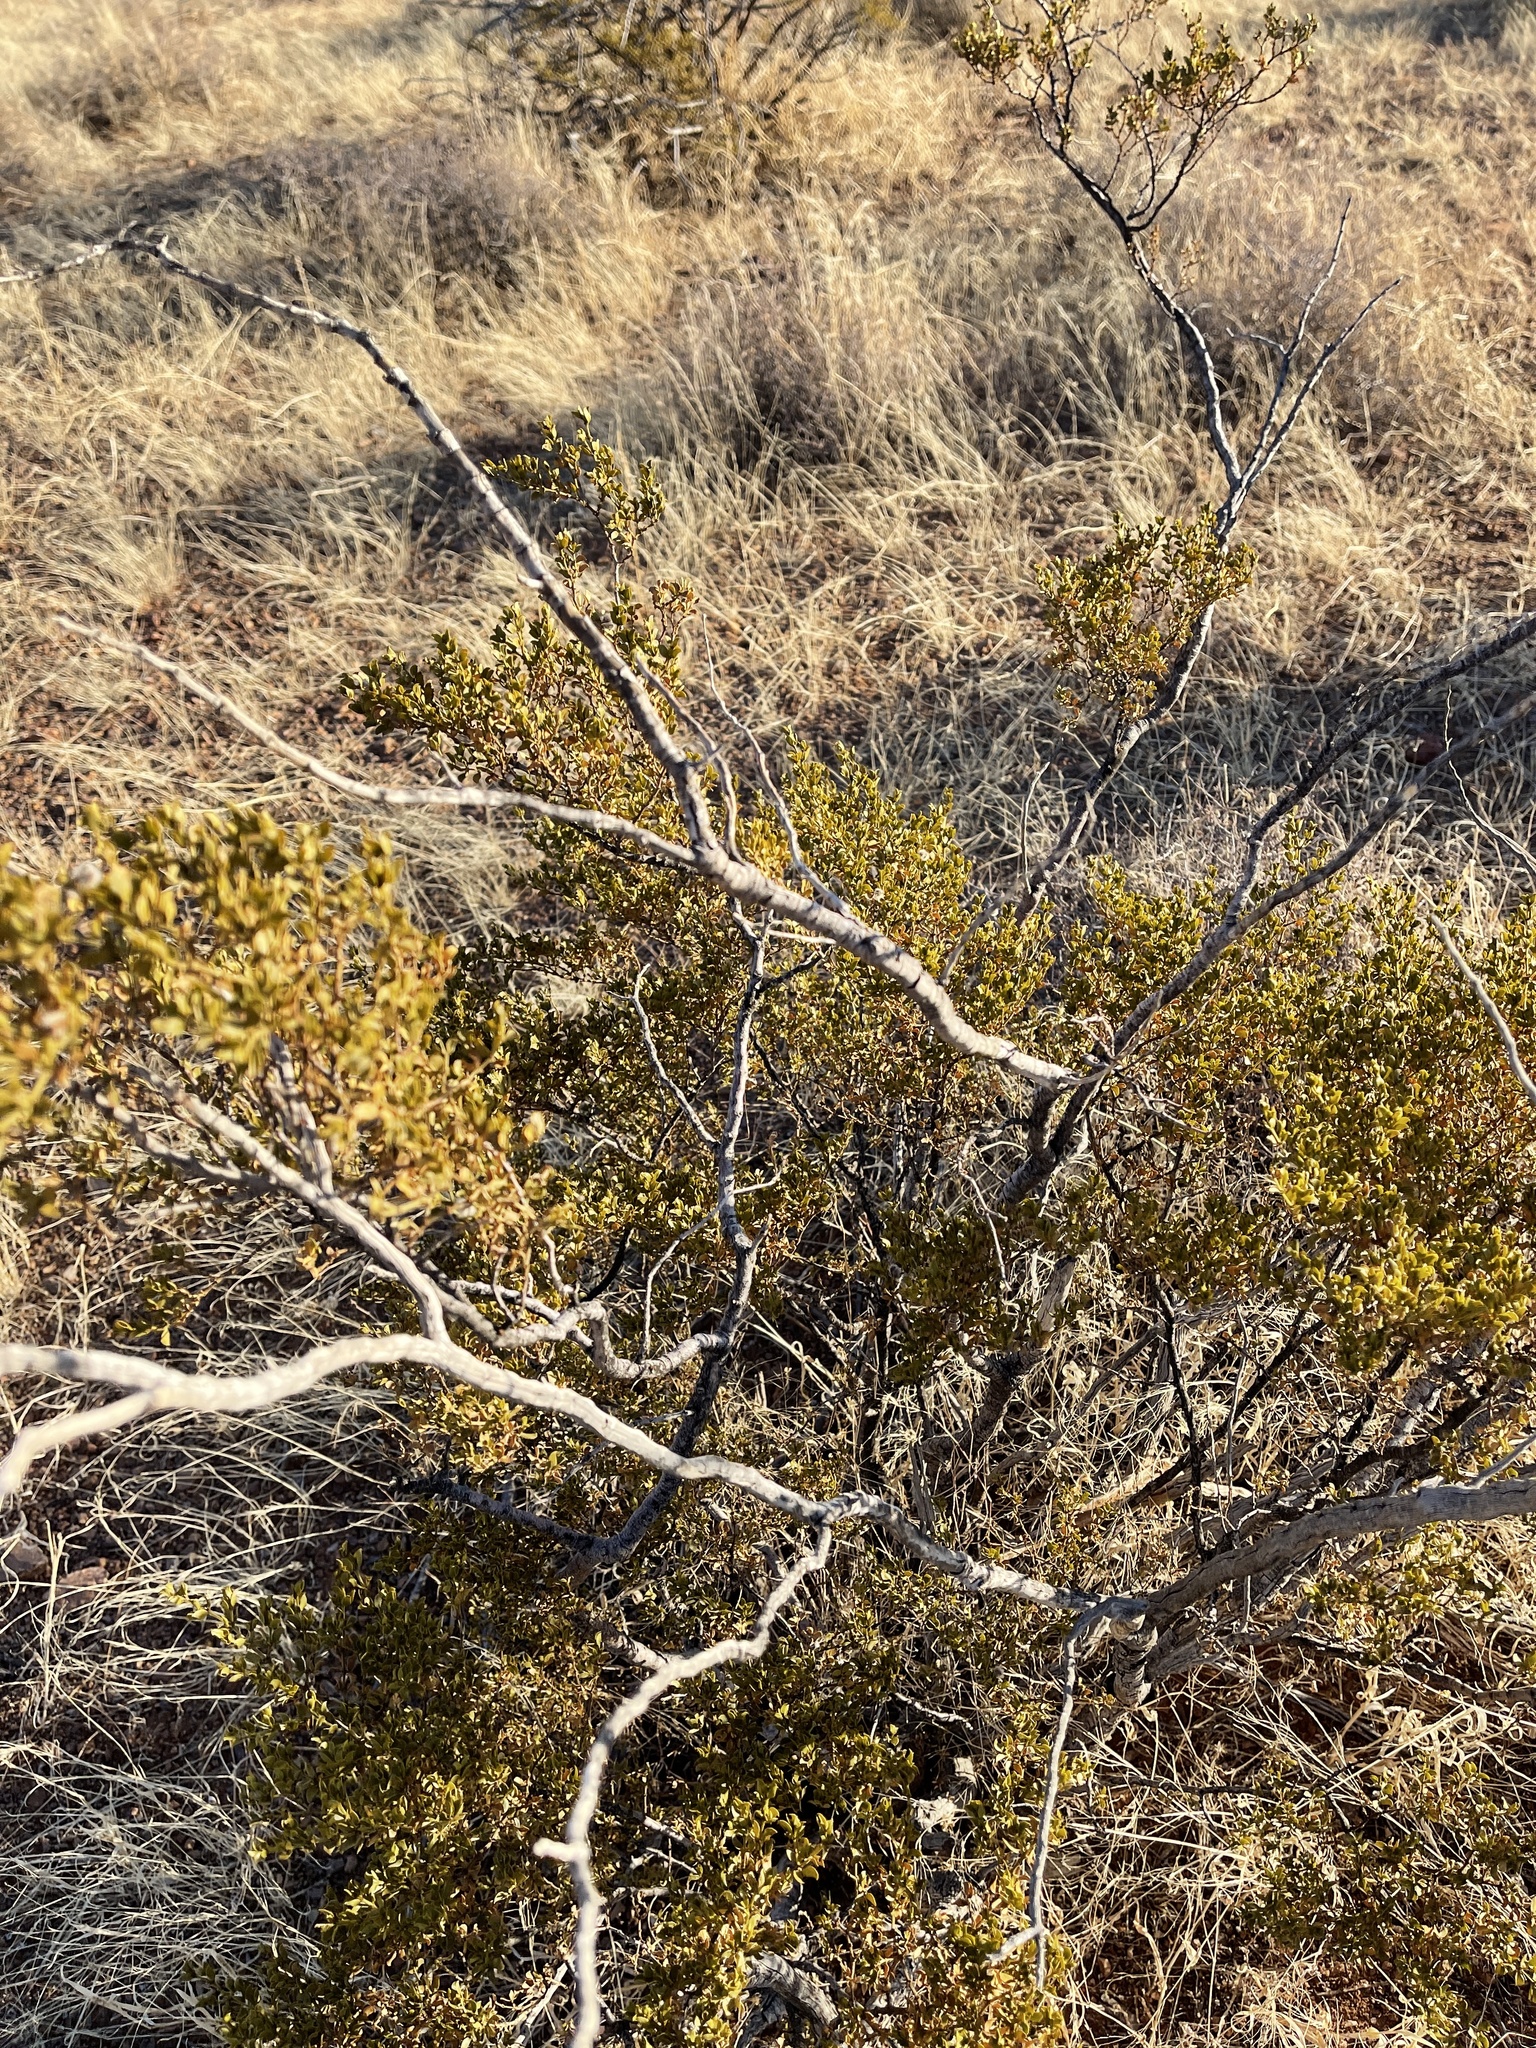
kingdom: Plantae
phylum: Tracheophyta
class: Magnoliopsida
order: Zygophyllales
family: Zygophyllaceae
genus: Larrea
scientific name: Larrea tridentata
